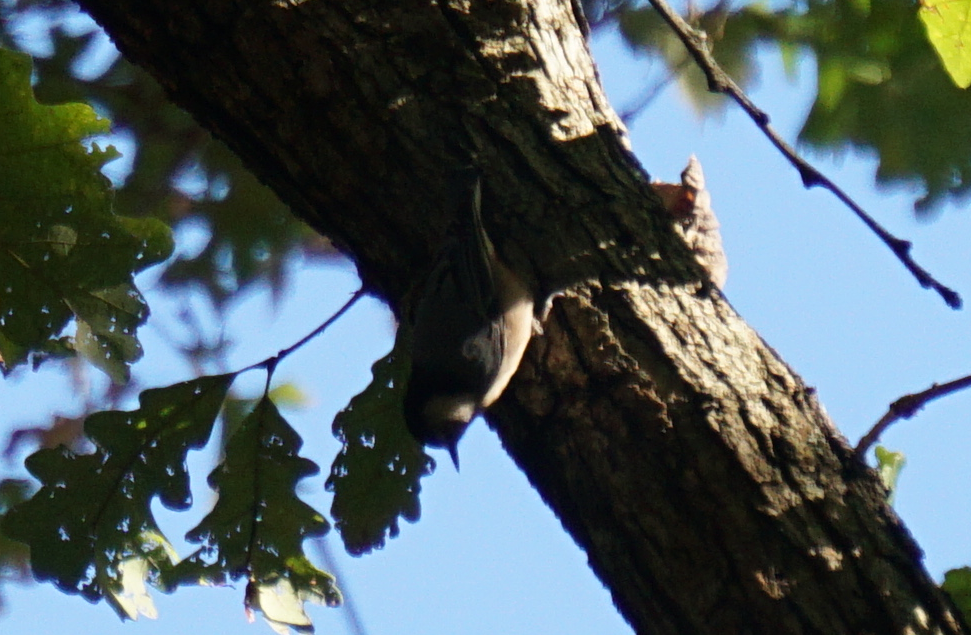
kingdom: Animalia
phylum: Chordata
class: Aves
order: Passeriformes
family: Sittidae
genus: Sitta
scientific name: Sitta carolinensis
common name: White-breasted nuthatch
